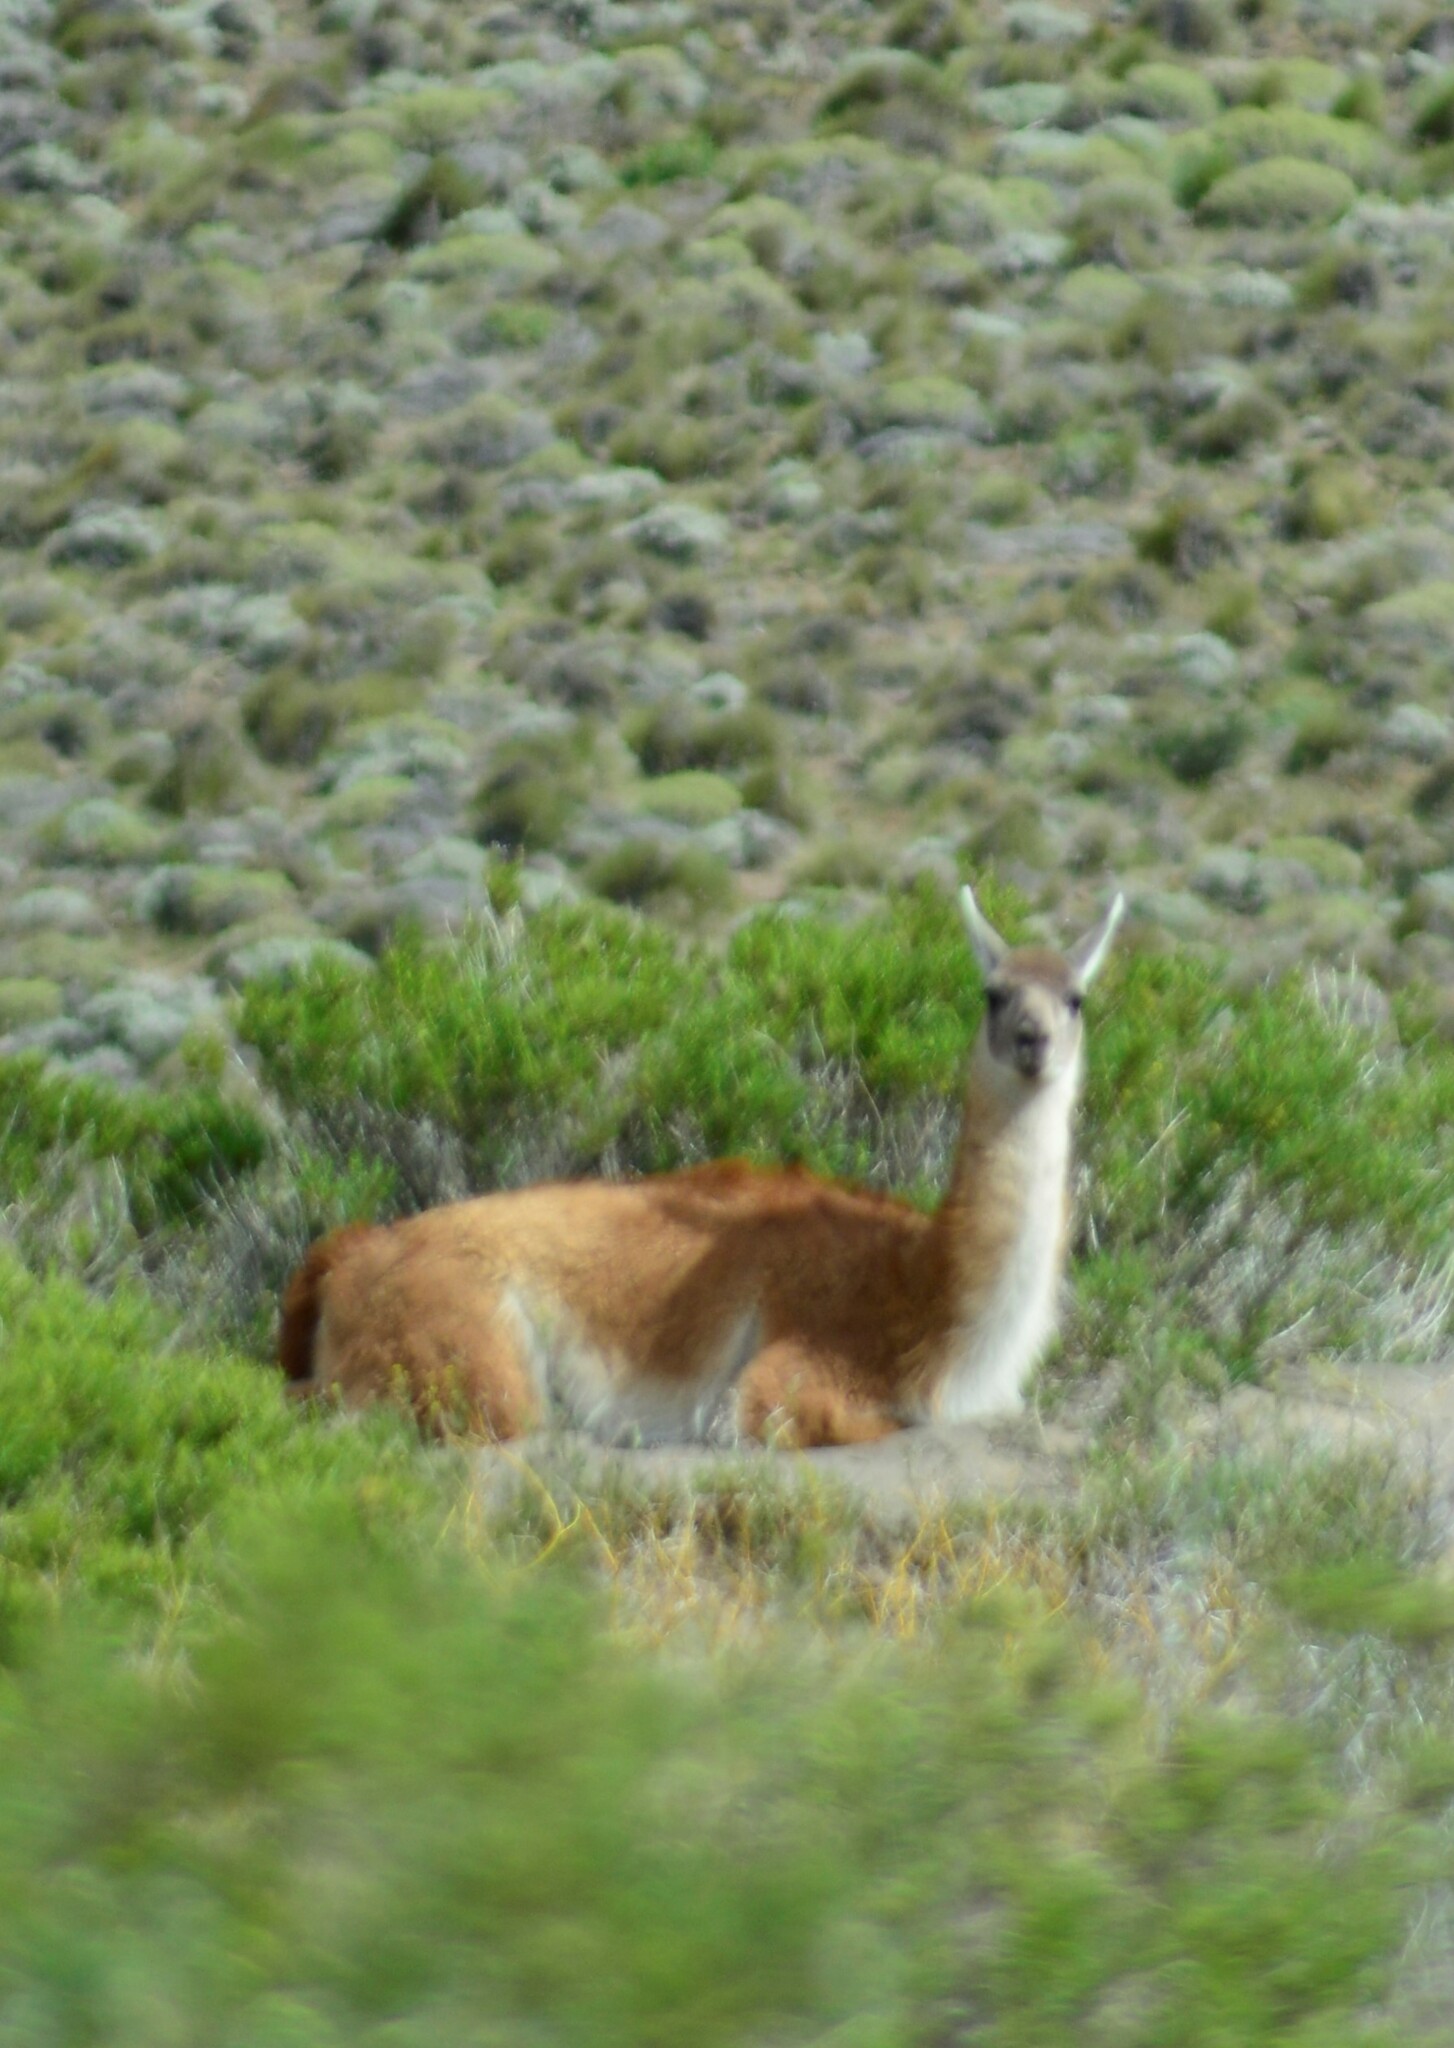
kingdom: Animalia
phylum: Chordata
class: Mammalia
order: Artiodactyla
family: Camelidae
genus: Lama
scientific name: Lama glama
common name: Llama
